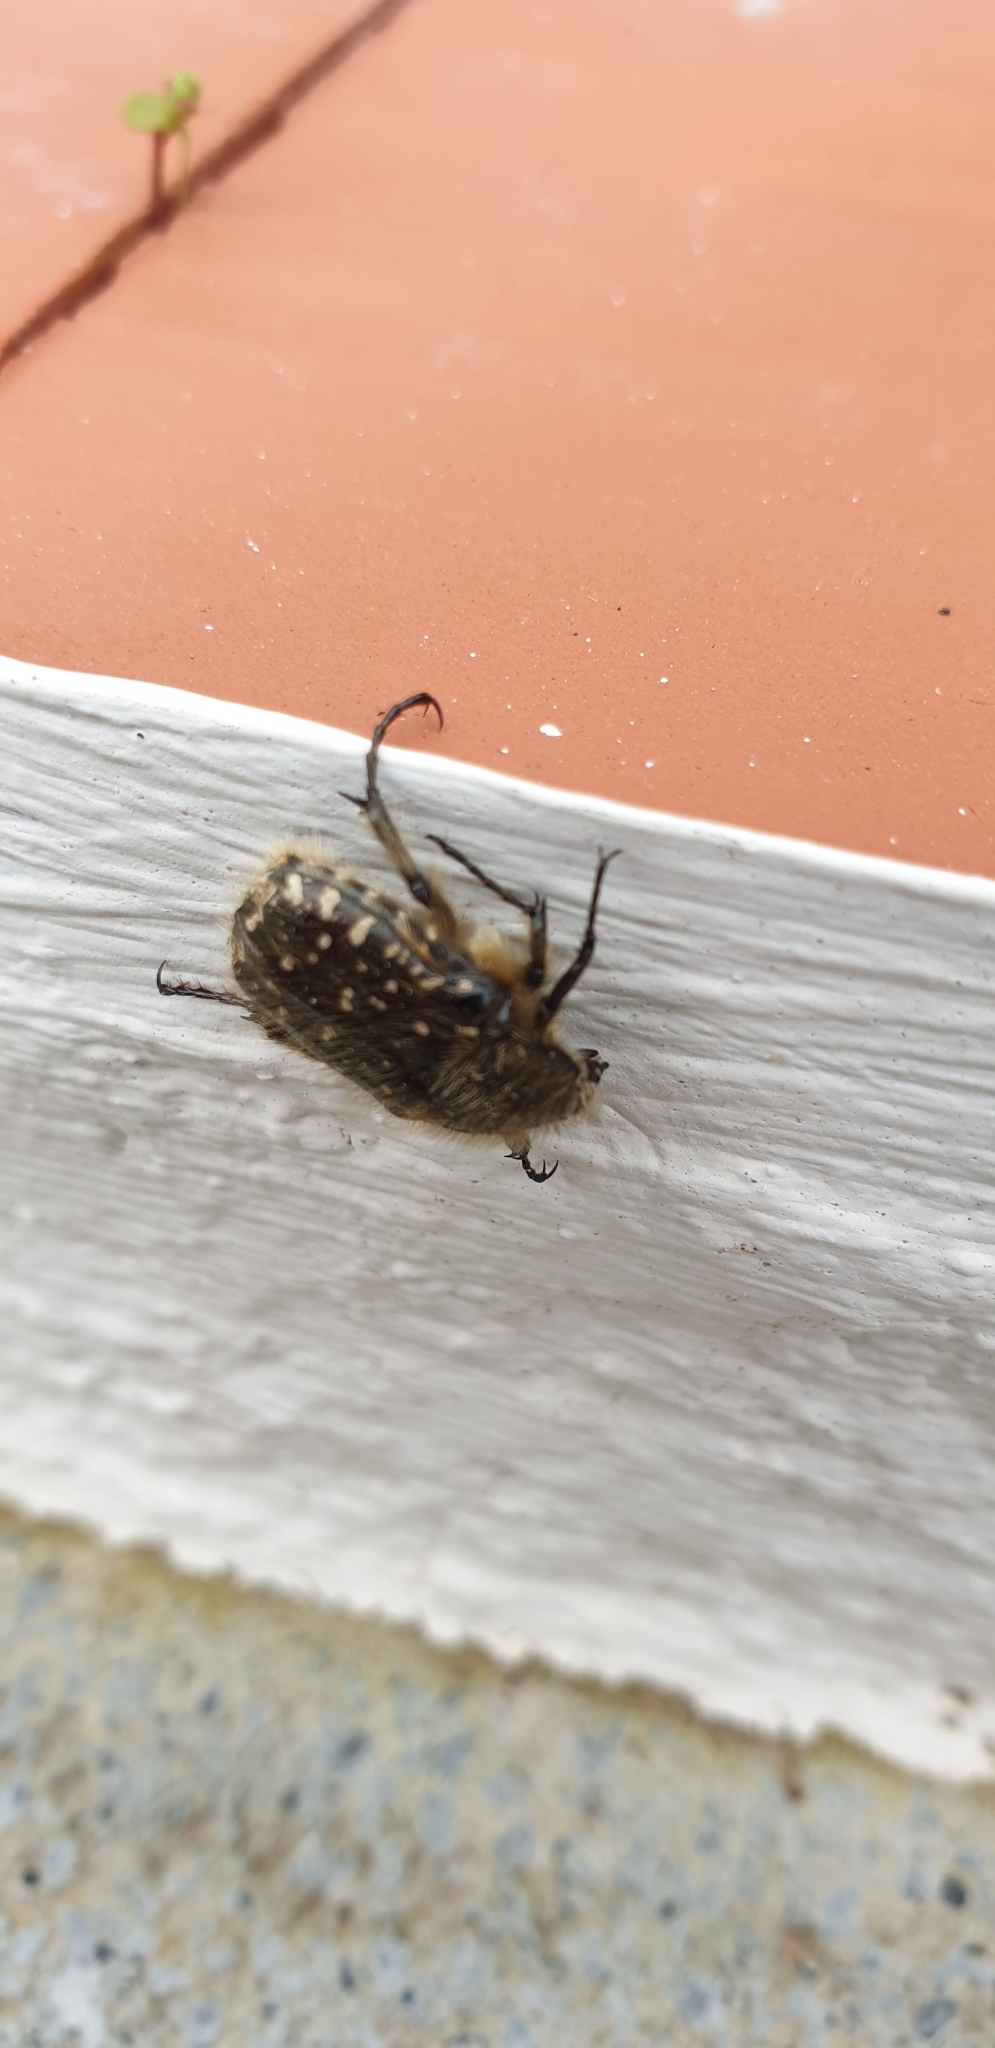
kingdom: Animalia
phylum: Arthropoda
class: Insecta
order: Coleoptera
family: Scarabaeidae
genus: Oxythyrea
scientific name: Oxythyrea funesta
